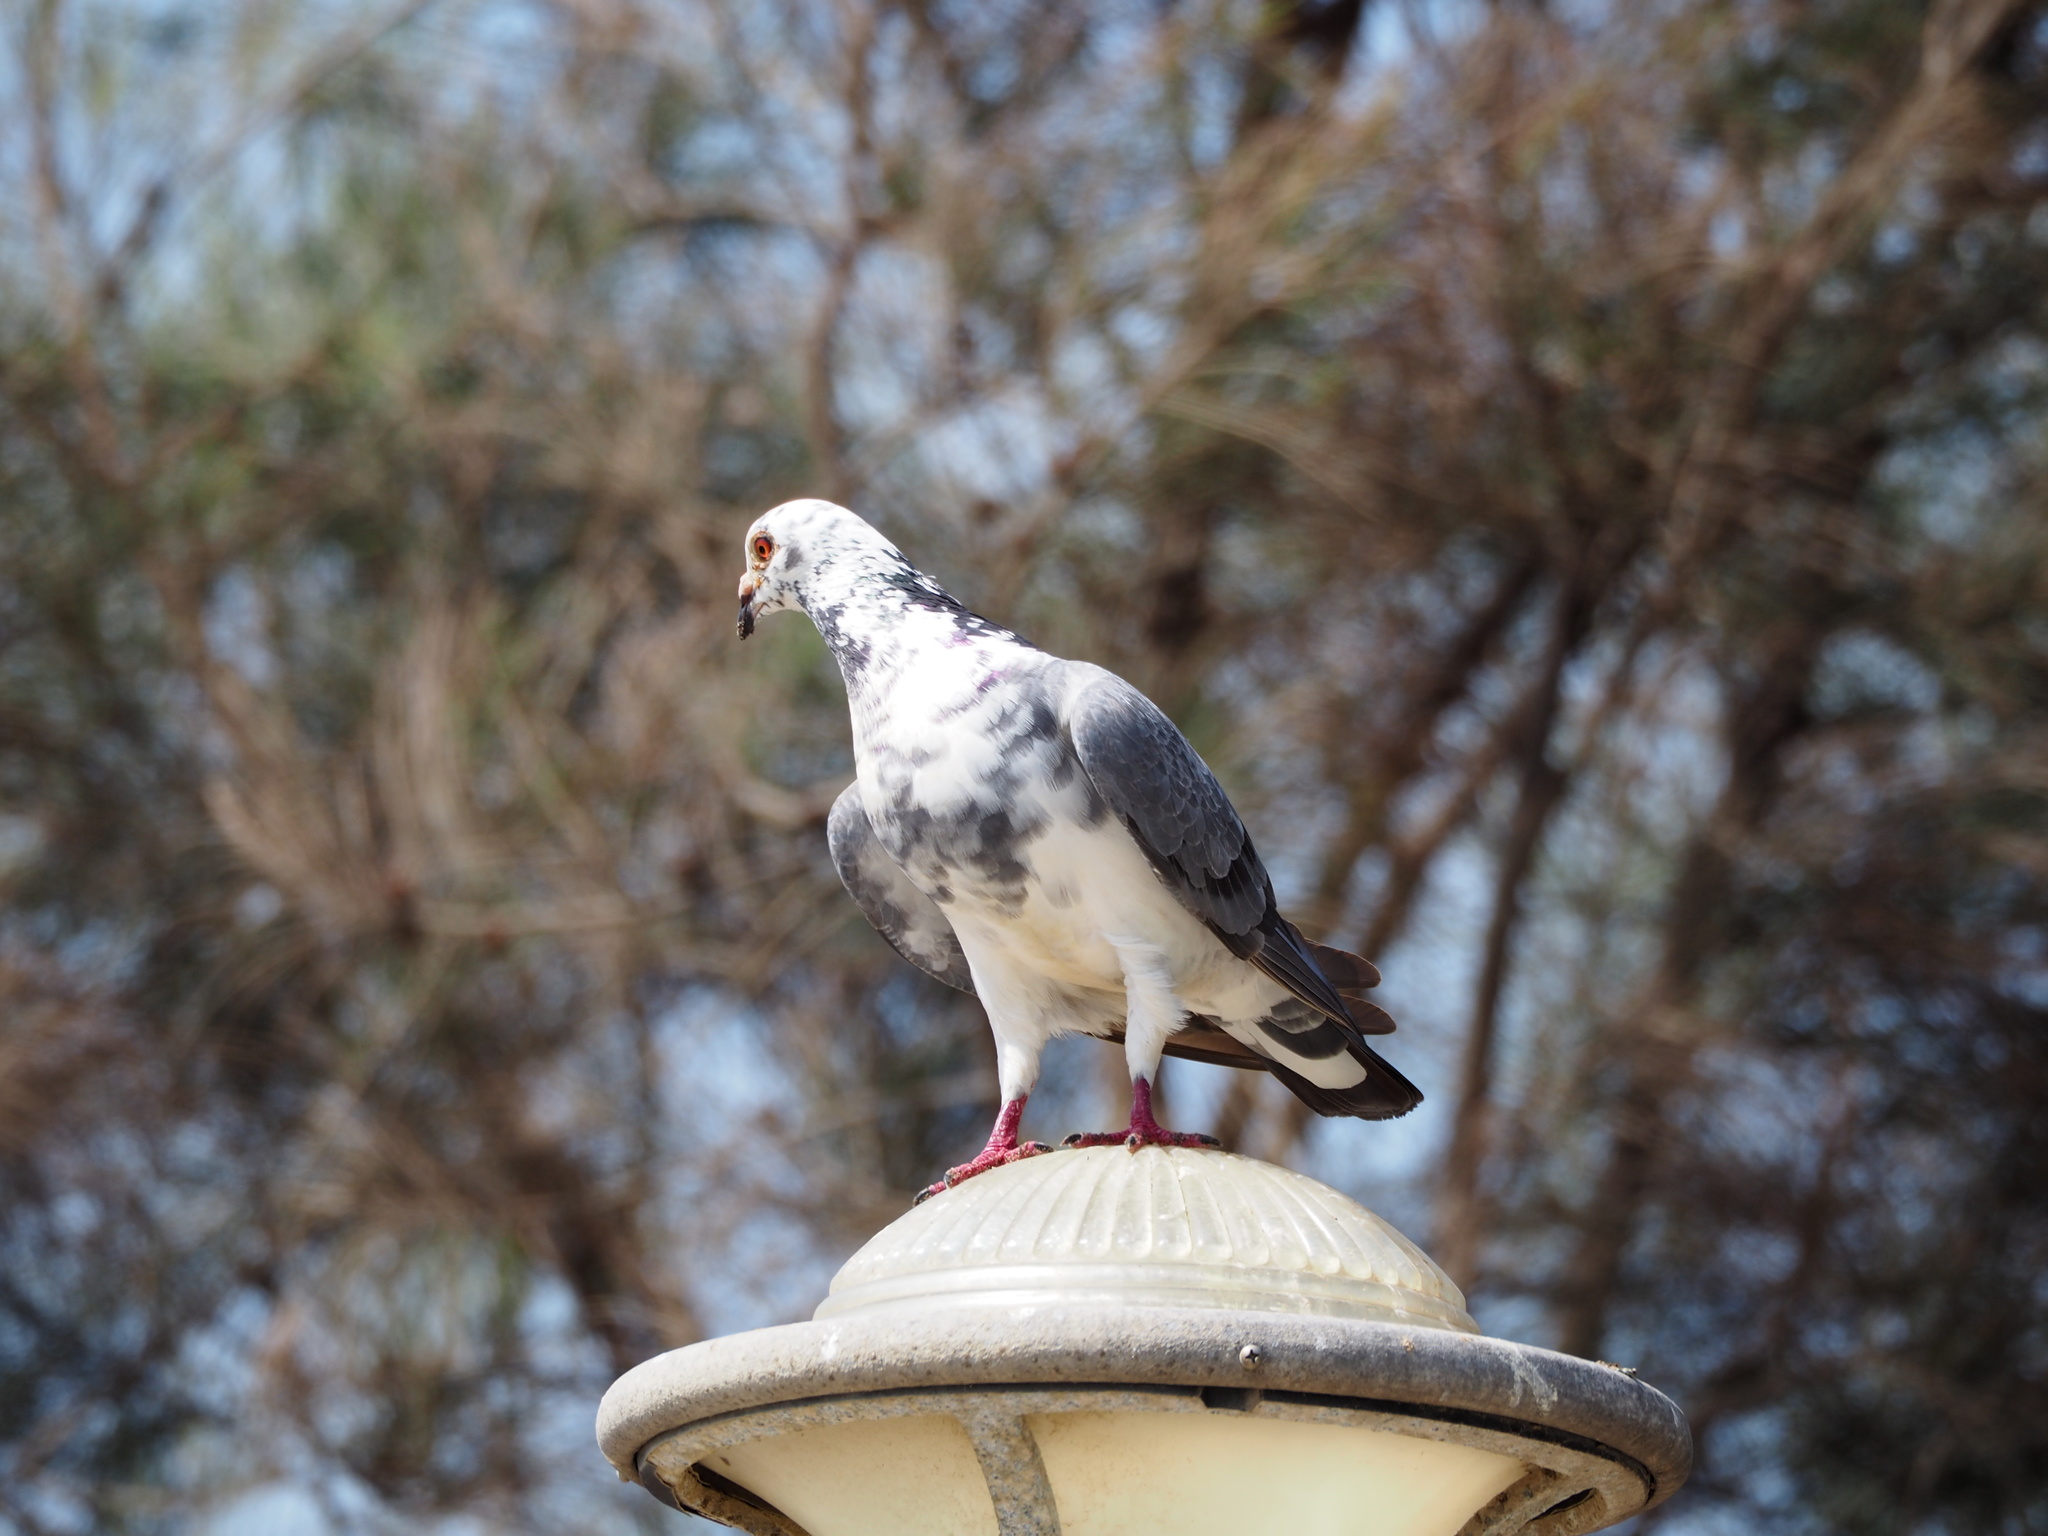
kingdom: Animalia
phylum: Chordata
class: Aves
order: Columbiformes
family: Columbidae
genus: Columba
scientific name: Columba livia
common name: Rock pigeon
